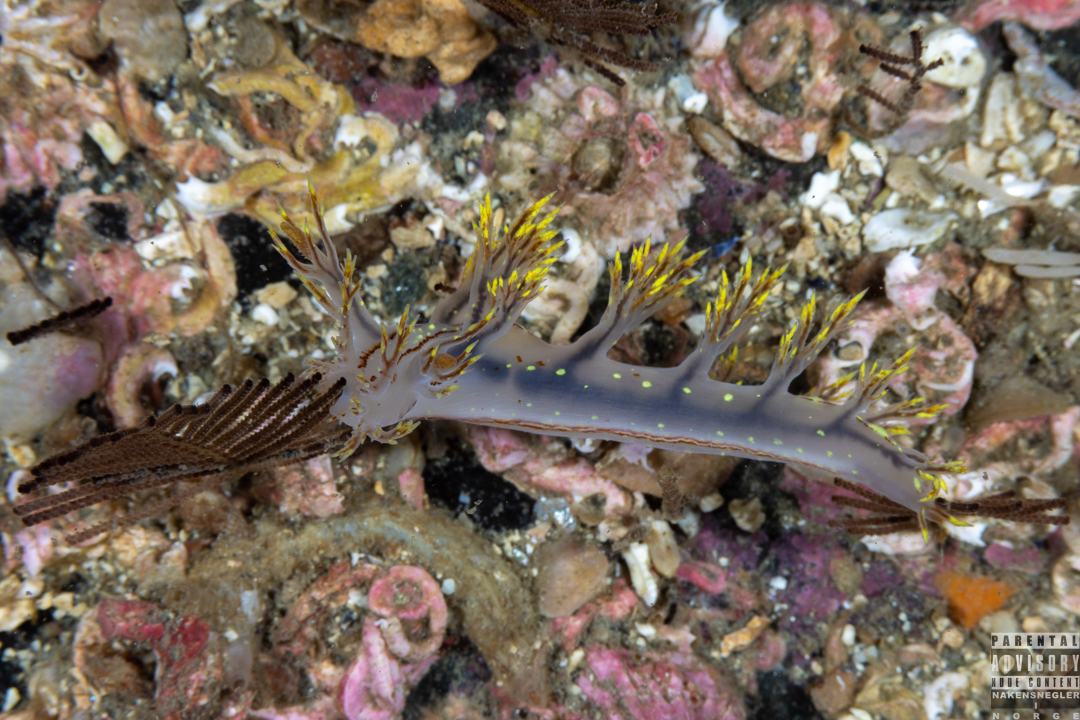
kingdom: Animalia
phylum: Mollusca
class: Gastropoda
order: Nudibranchia
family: Dendronotidae
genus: Dendronotus
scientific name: Dendronotus yrjargul
